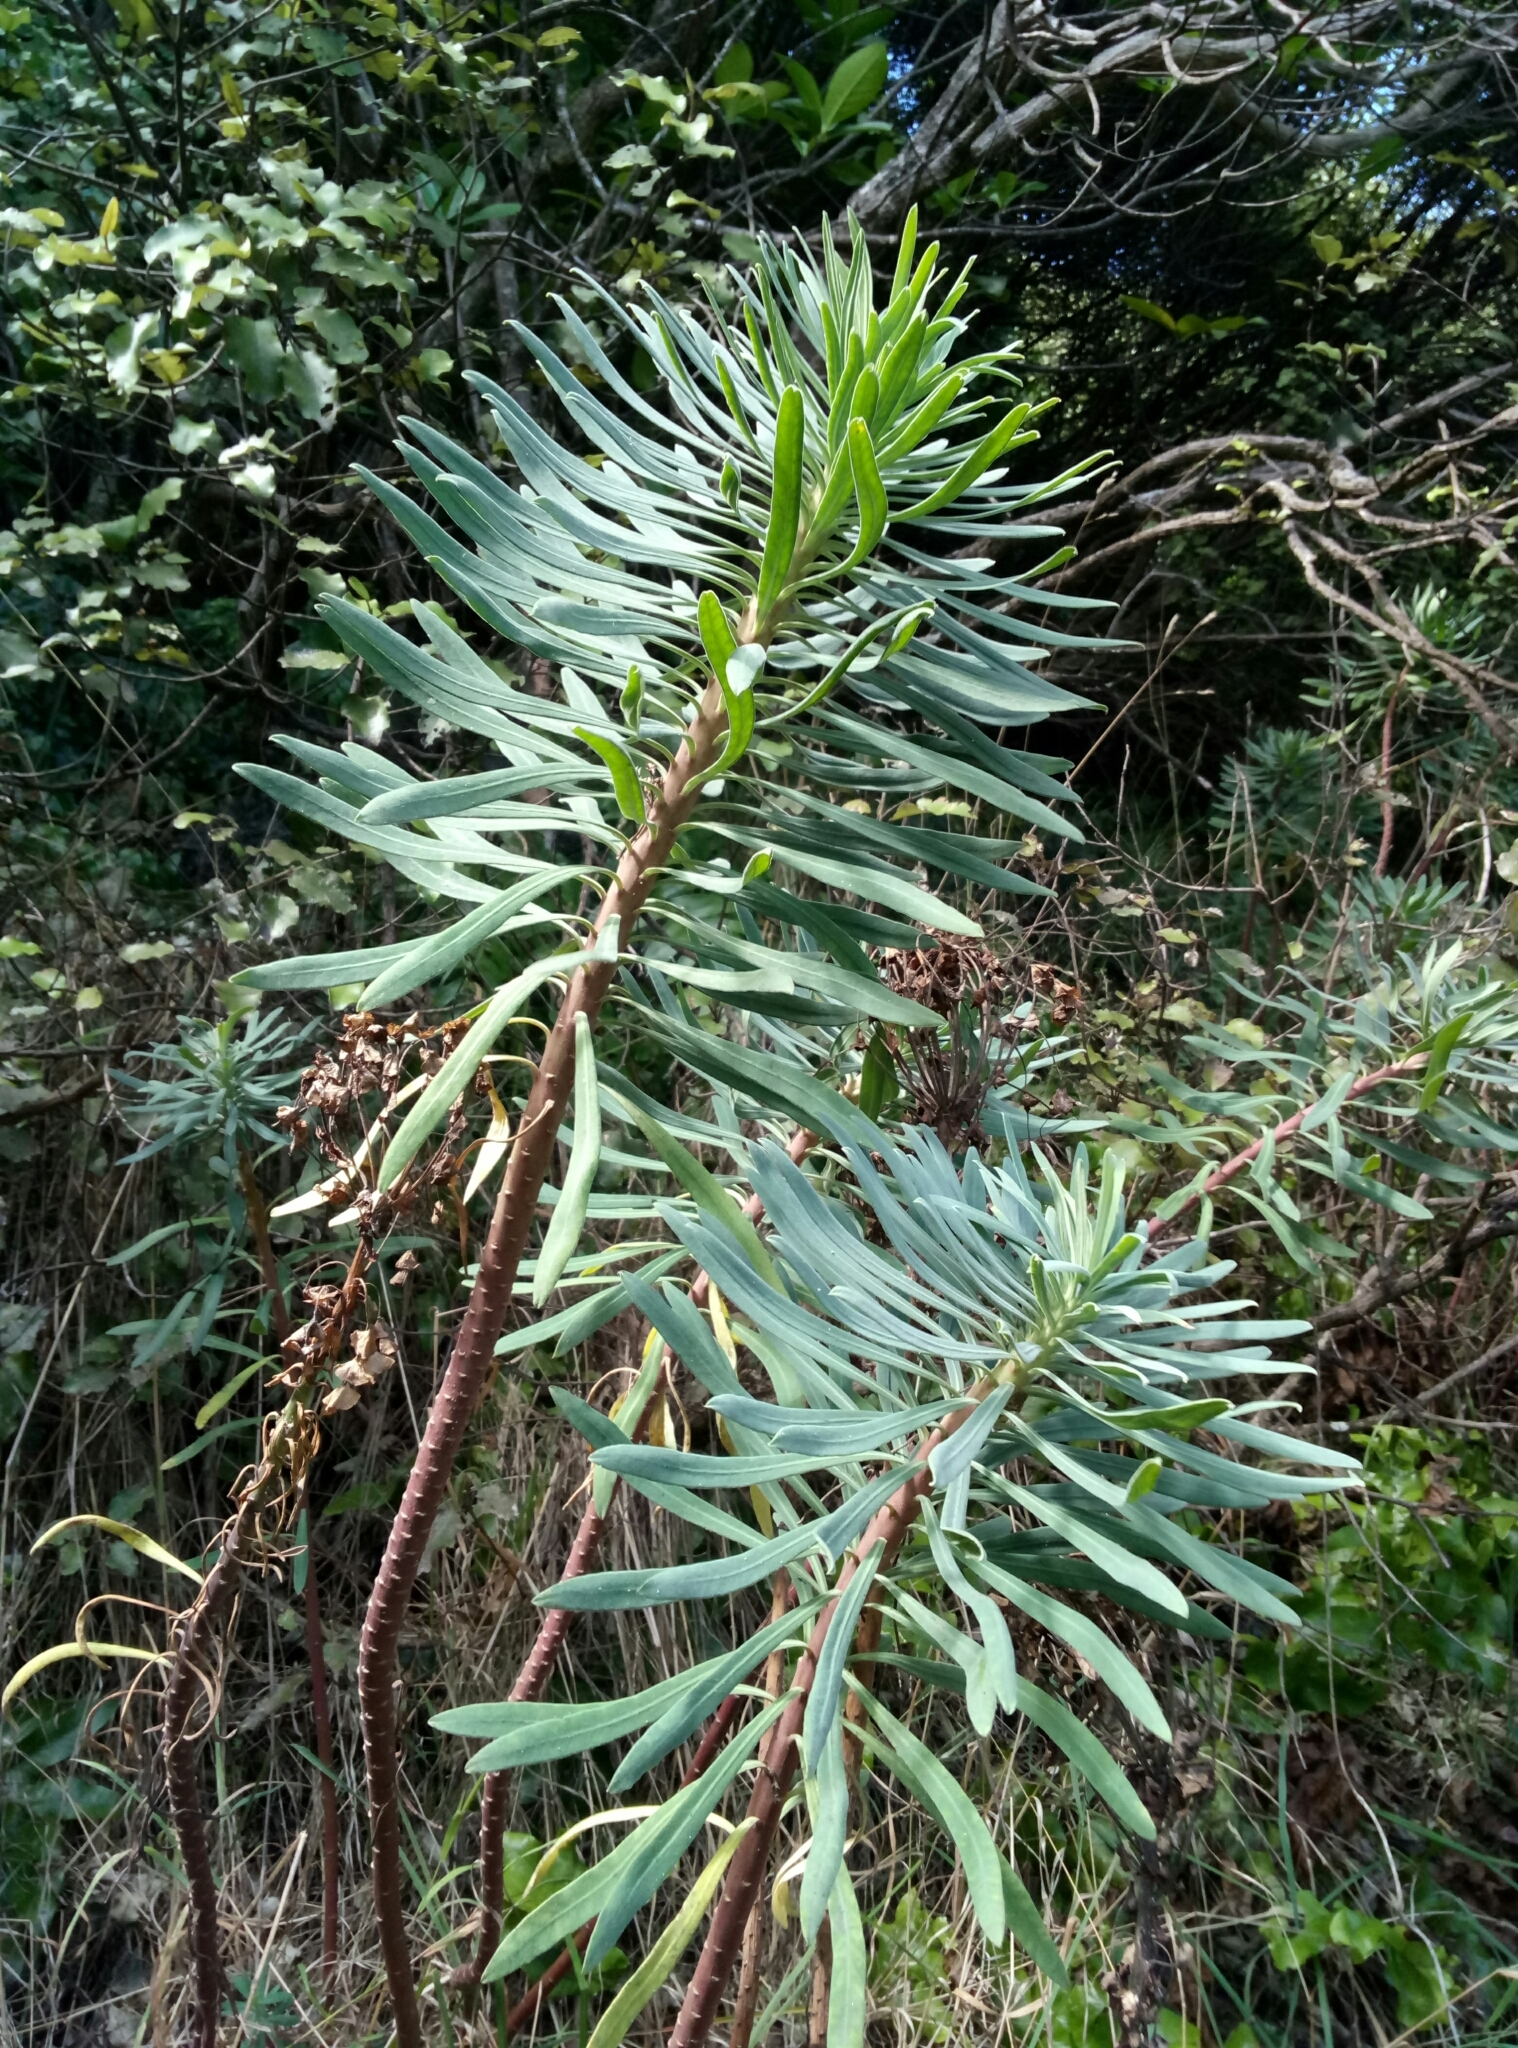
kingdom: Plantae
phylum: Tracheophyta
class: Magnoliopsida
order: Malpighiales
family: Euphorbiaceae
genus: Euphorbia
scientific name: Euphorbia characias
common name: Mediterranean spurge
